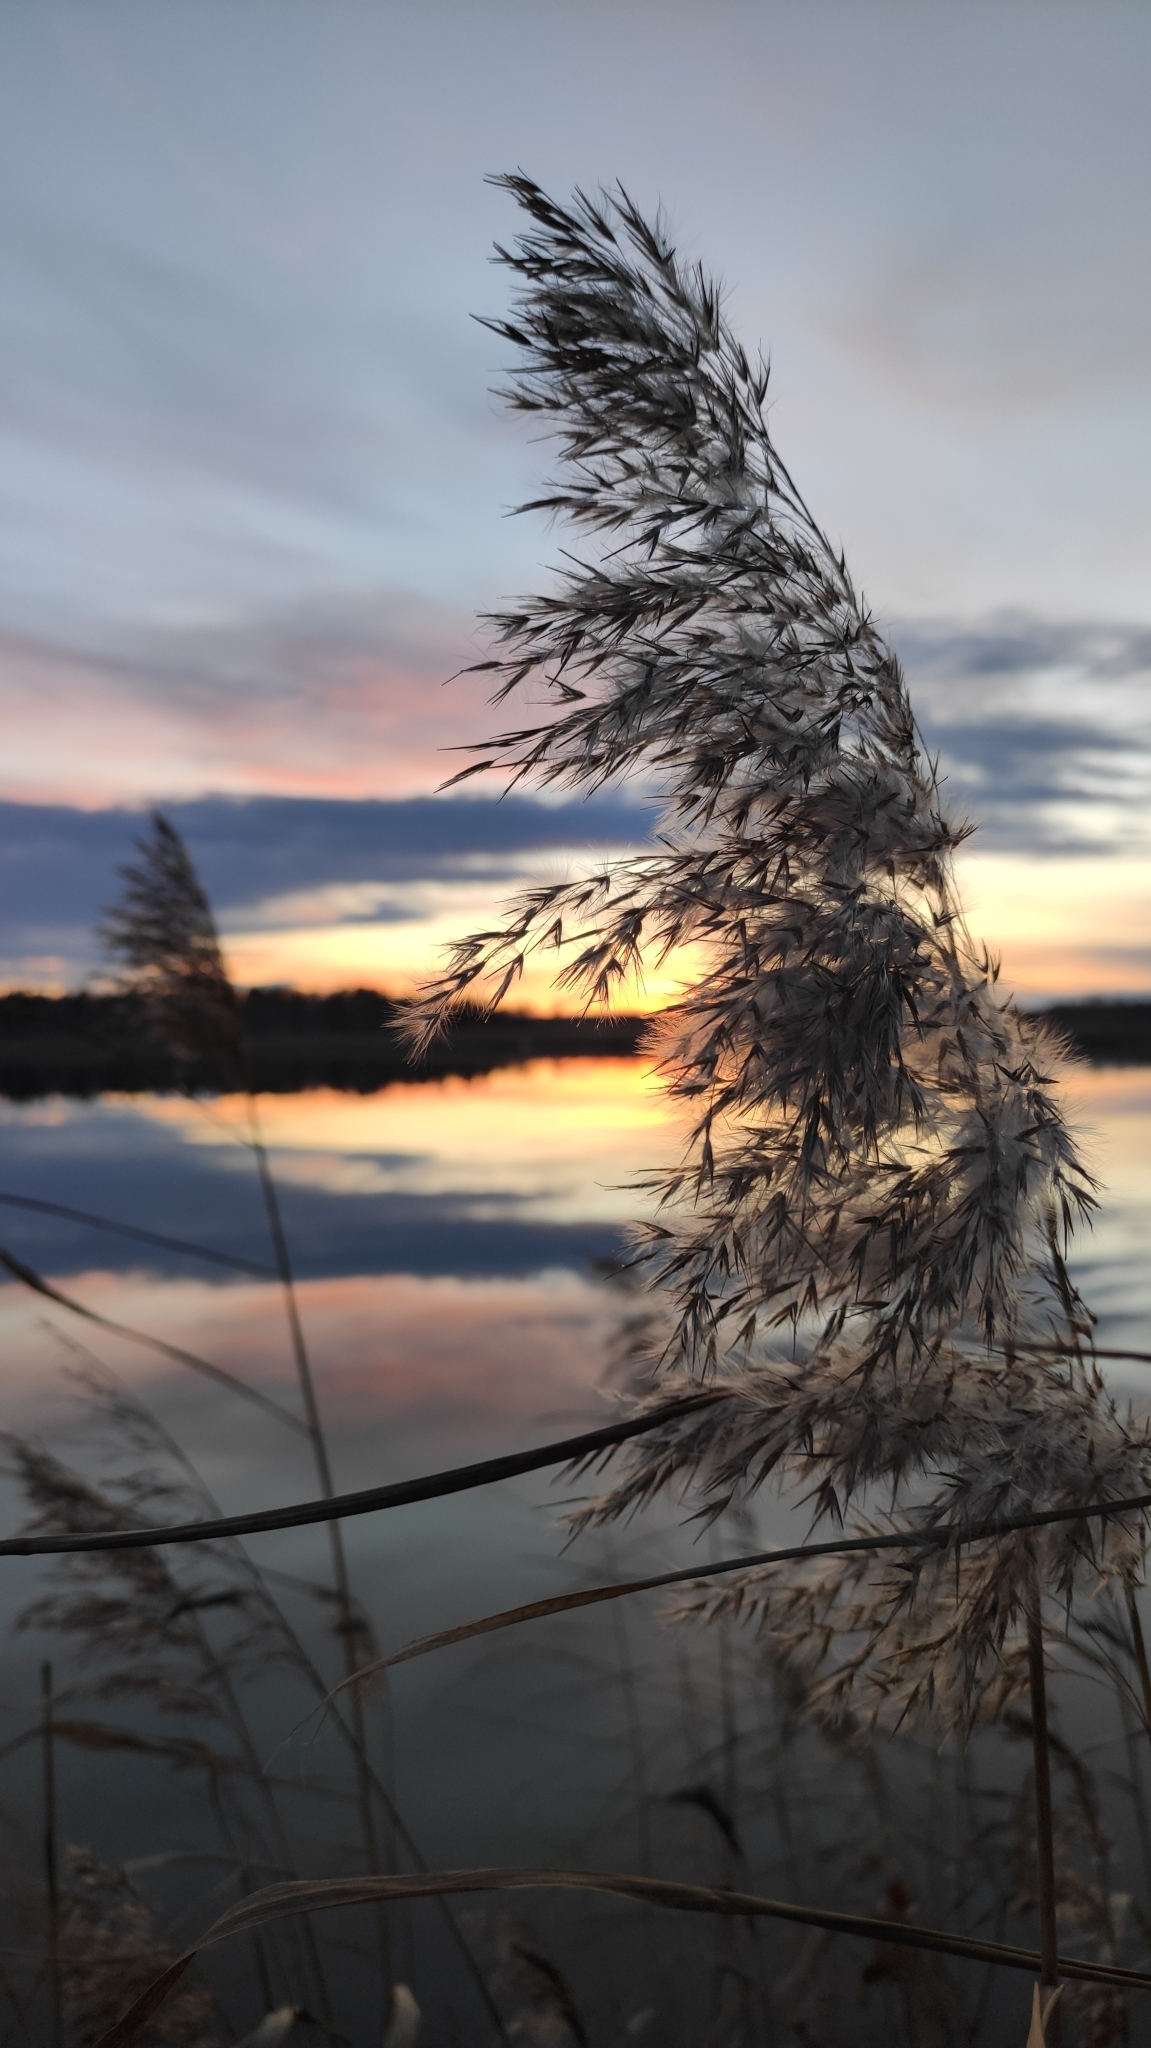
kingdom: Plantae
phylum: Tracheophyta
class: Liliopsida
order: Poales
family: Poaceae
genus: Phragmites
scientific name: Phragmites australis
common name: Common reed
